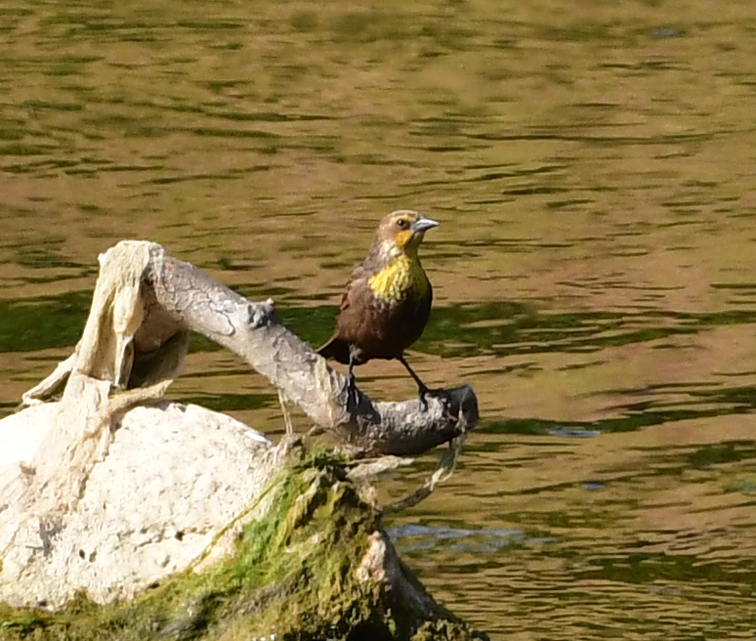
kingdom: Animalia
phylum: Chordata
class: Aves
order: Passeriformes
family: Icteridae
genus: Xanthocephalus
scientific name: Xanthocephalus xanthocephalus
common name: Yellow-headed blackbird
